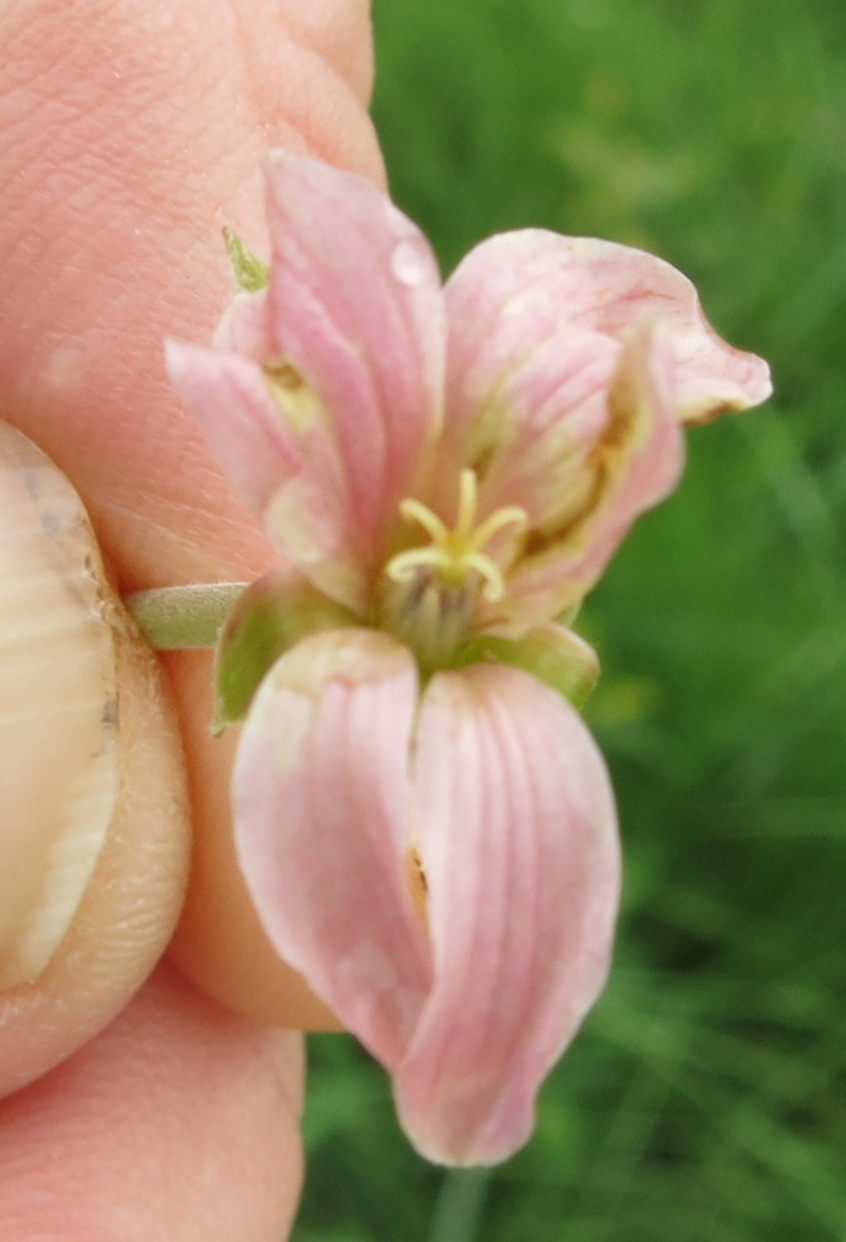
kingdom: Plantae
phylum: Tracheophyta
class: Magnoliopsida
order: Geraniales
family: Geraniaceae
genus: Pelargonium
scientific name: Pelargonium luridum
